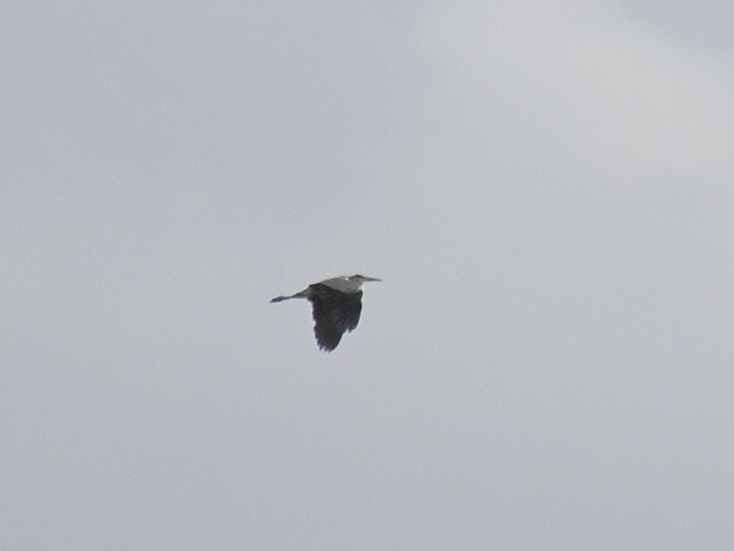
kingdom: Animalia
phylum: Chordata
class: Aves
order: Pelecaniformes
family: Ardeidae
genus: Ardea
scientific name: Ardea cinerea
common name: Grey heron
